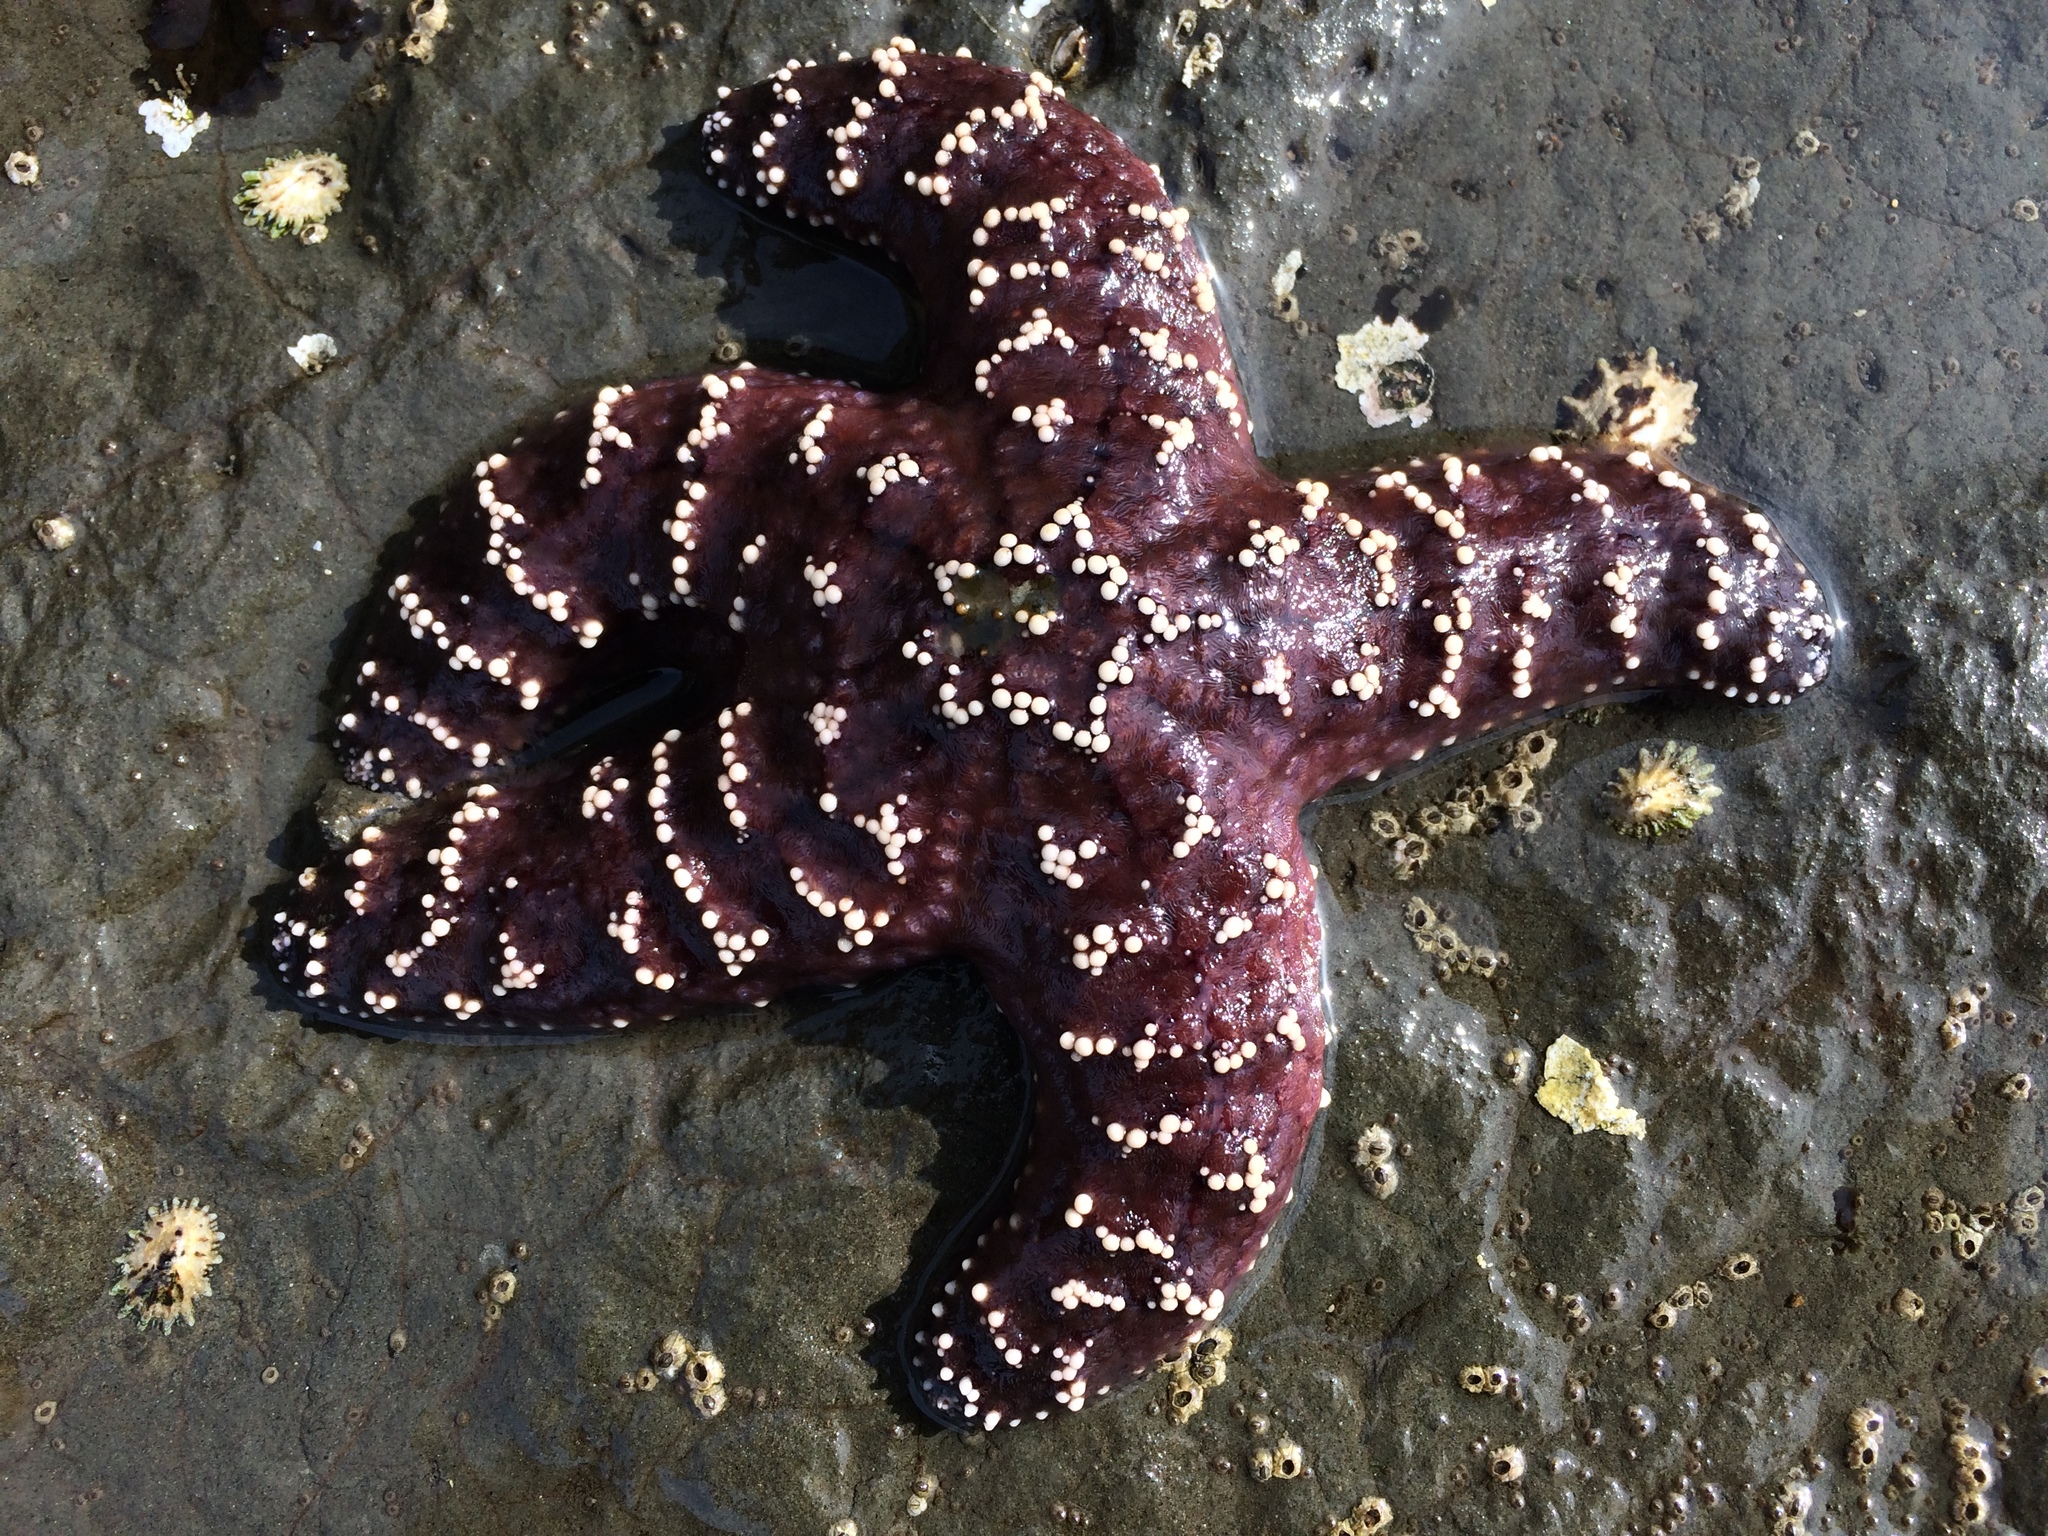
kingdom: Animalia
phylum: Echinodermata
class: Asteroidea
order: Forcipulatida
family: Asteriidae
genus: Pisaster
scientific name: Pisaster ochraceus
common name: Ochre stars
